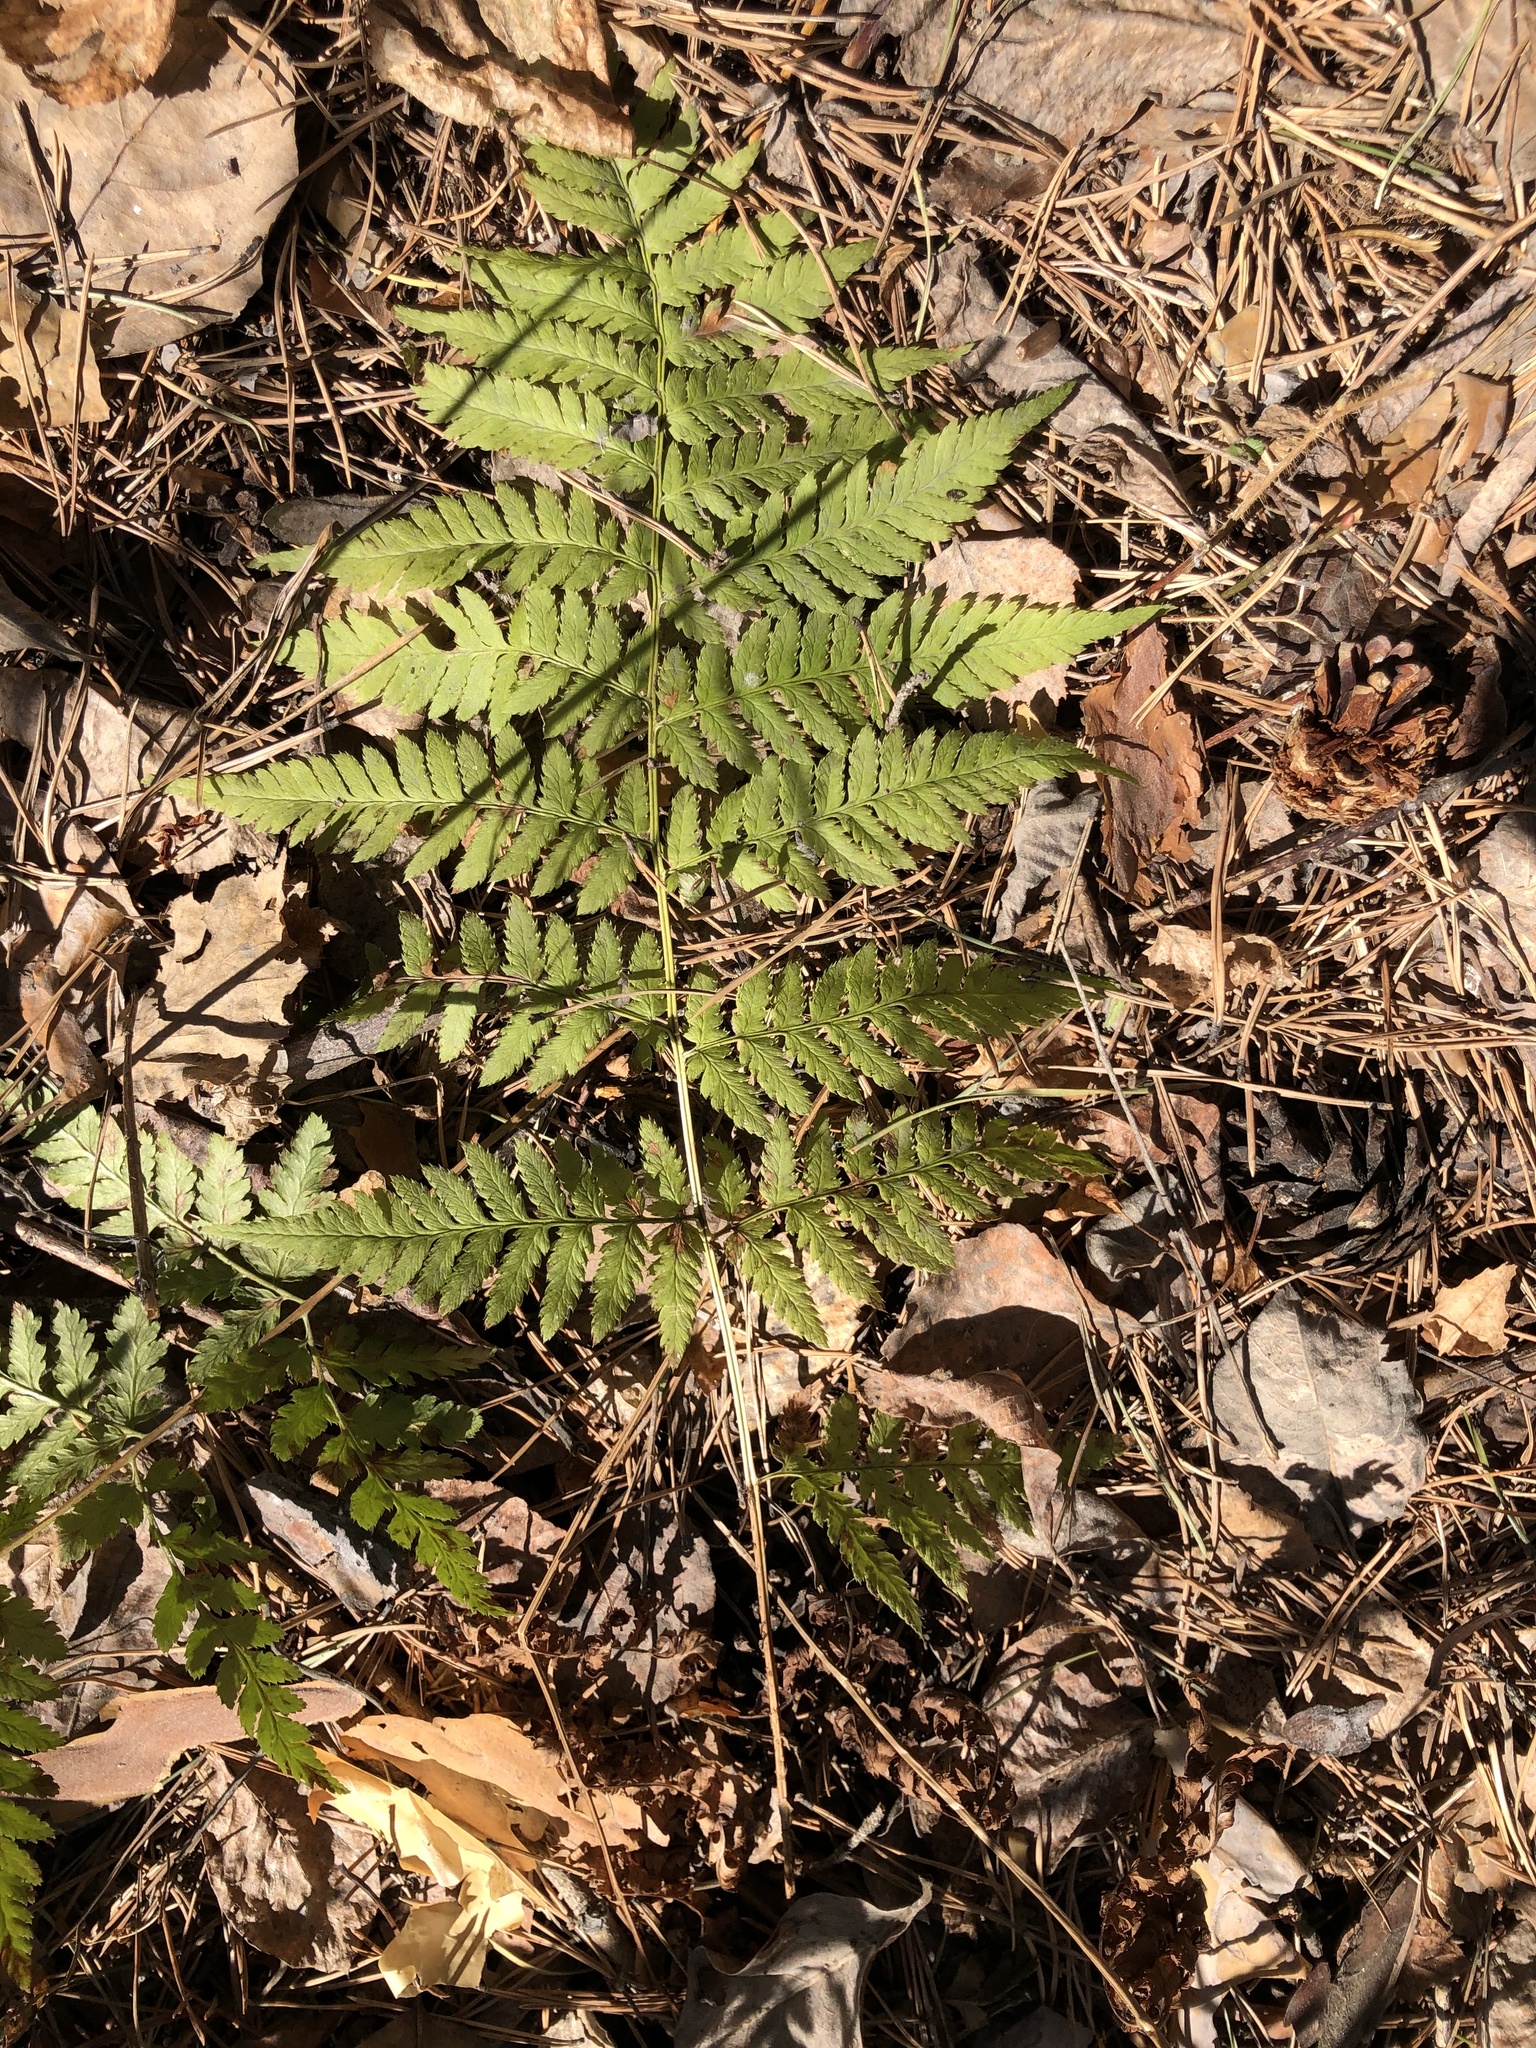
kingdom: Plantae
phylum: Tracheophyta
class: Polypodiopsida
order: Polypodiales
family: Dryopteridaceae
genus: Dryopteris
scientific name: Dryopteris carthusiana
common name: Narrow buckler-fern
